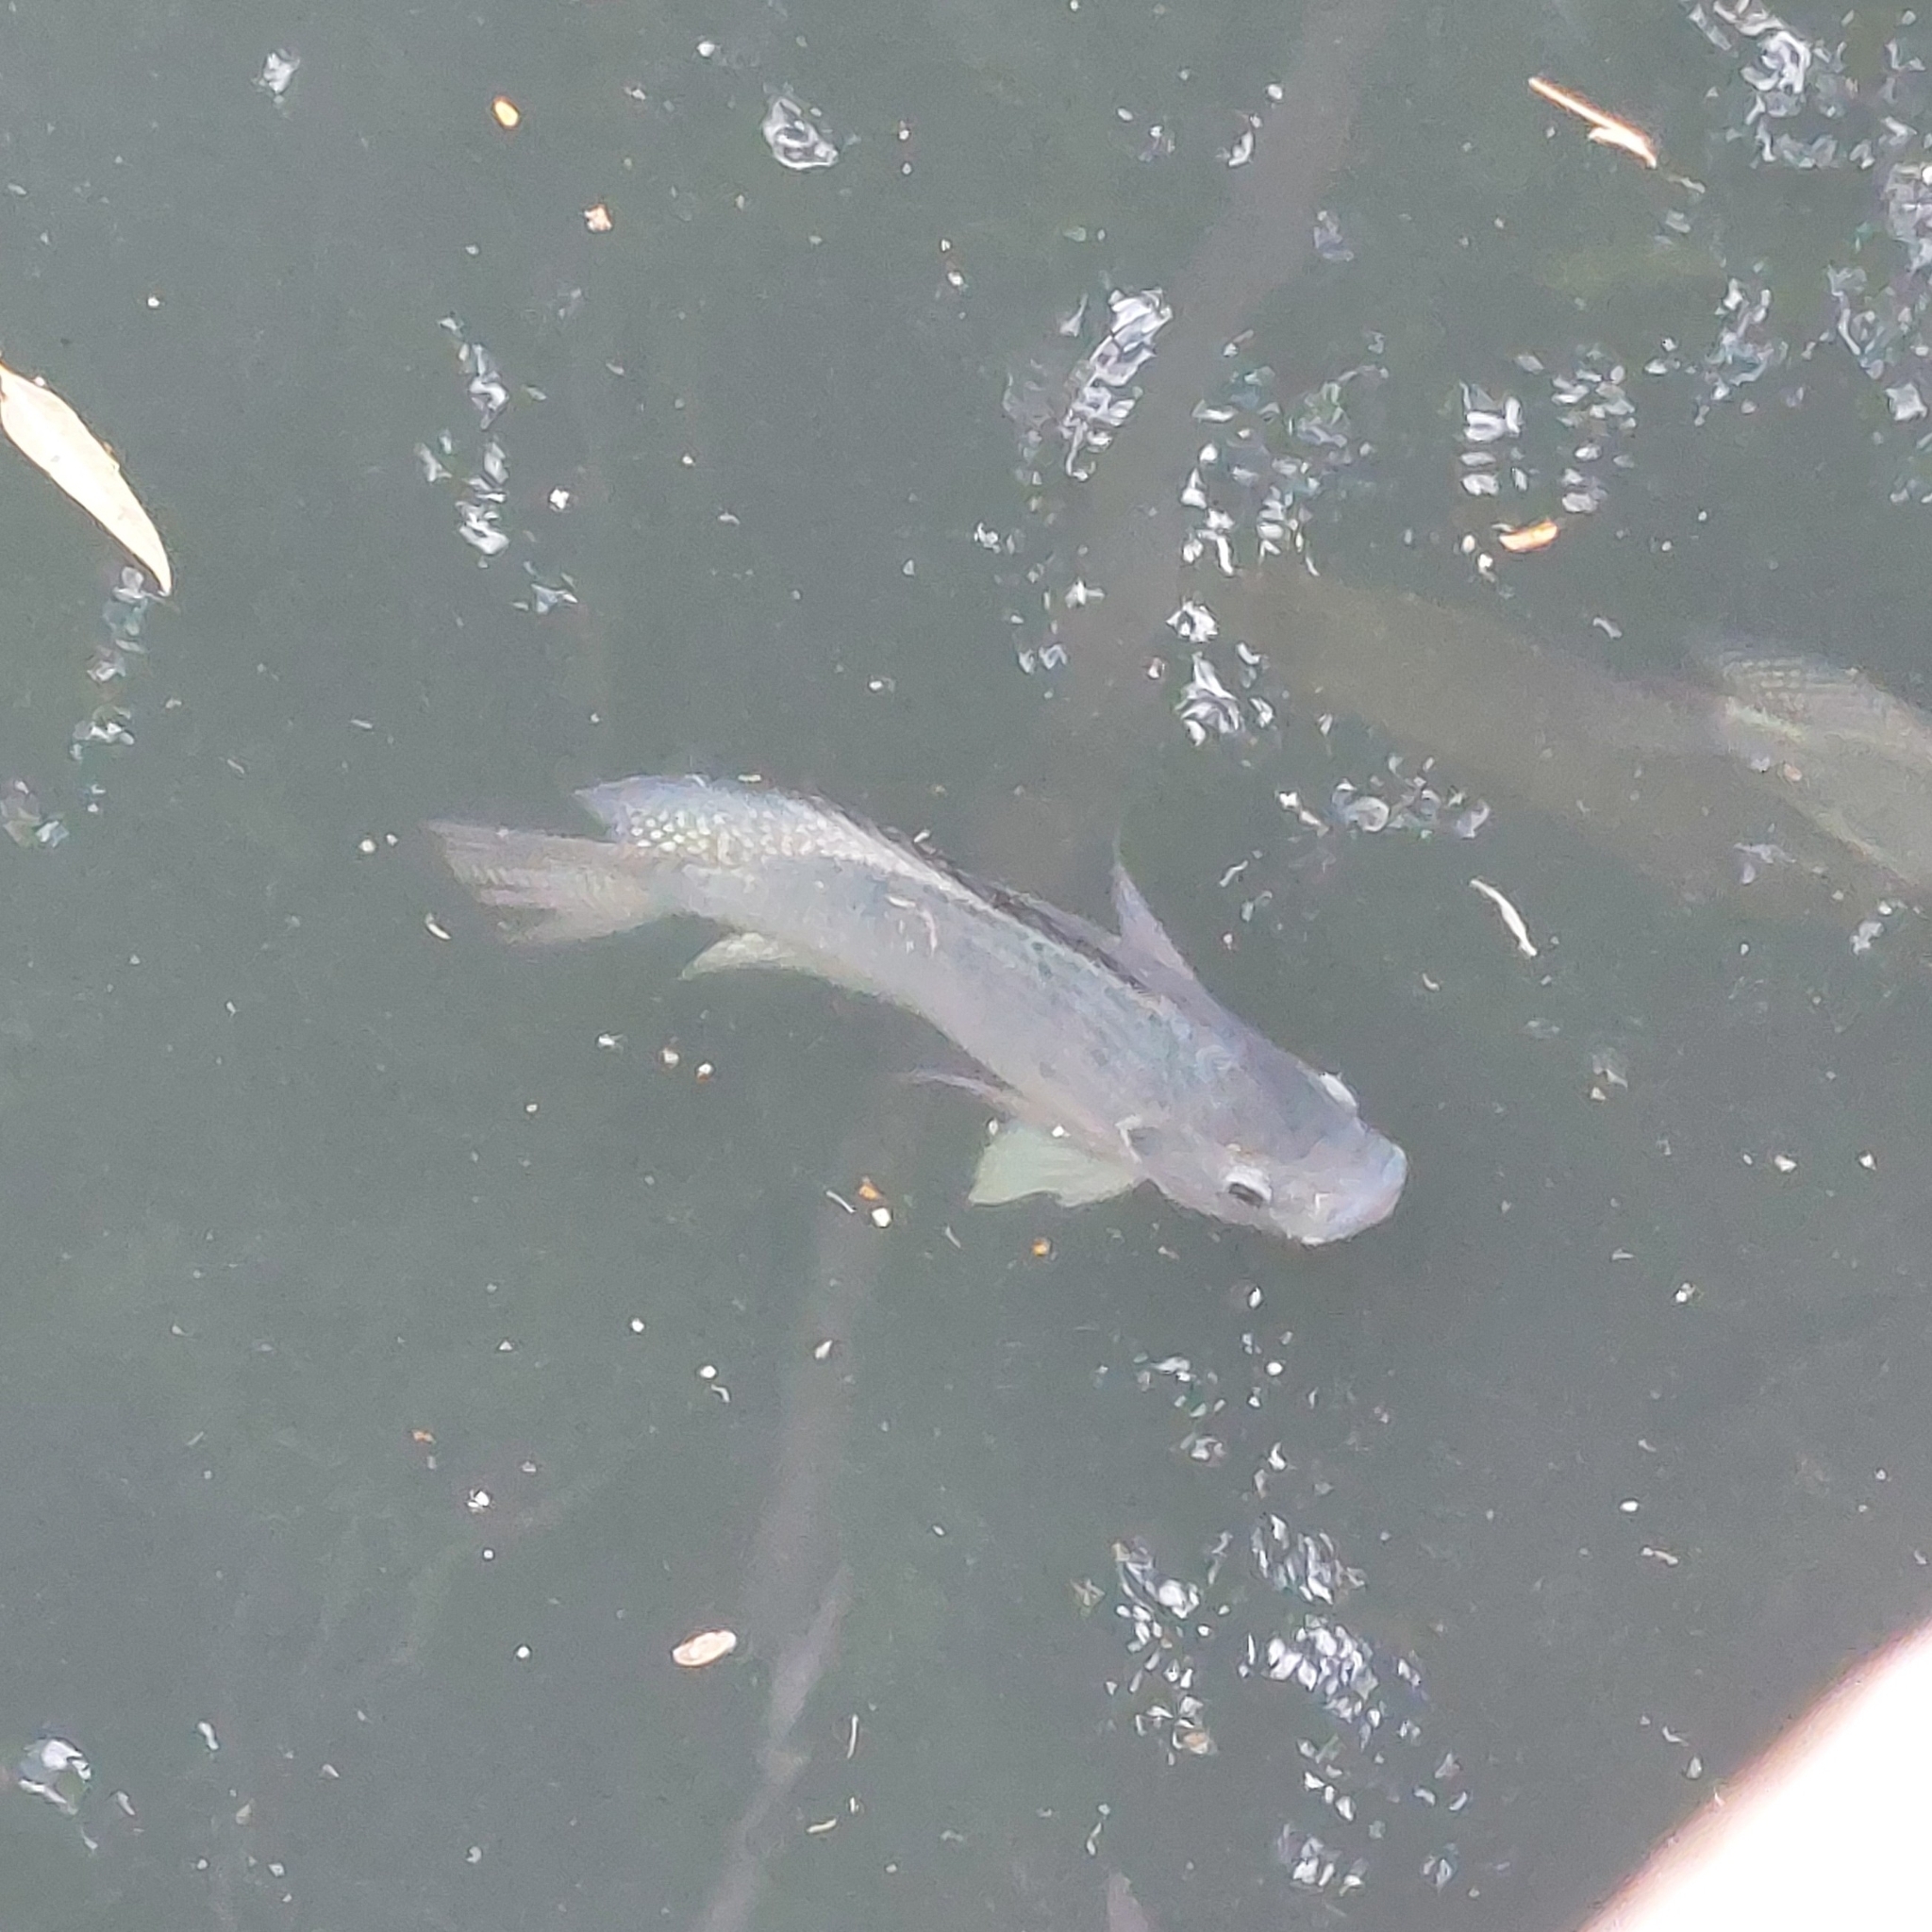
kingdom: Animalia
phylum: Chordata
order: Perciformes
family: Cichlidae
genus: Oreochromis
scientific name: Oreochromis niloticus
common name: Nile tilapia
